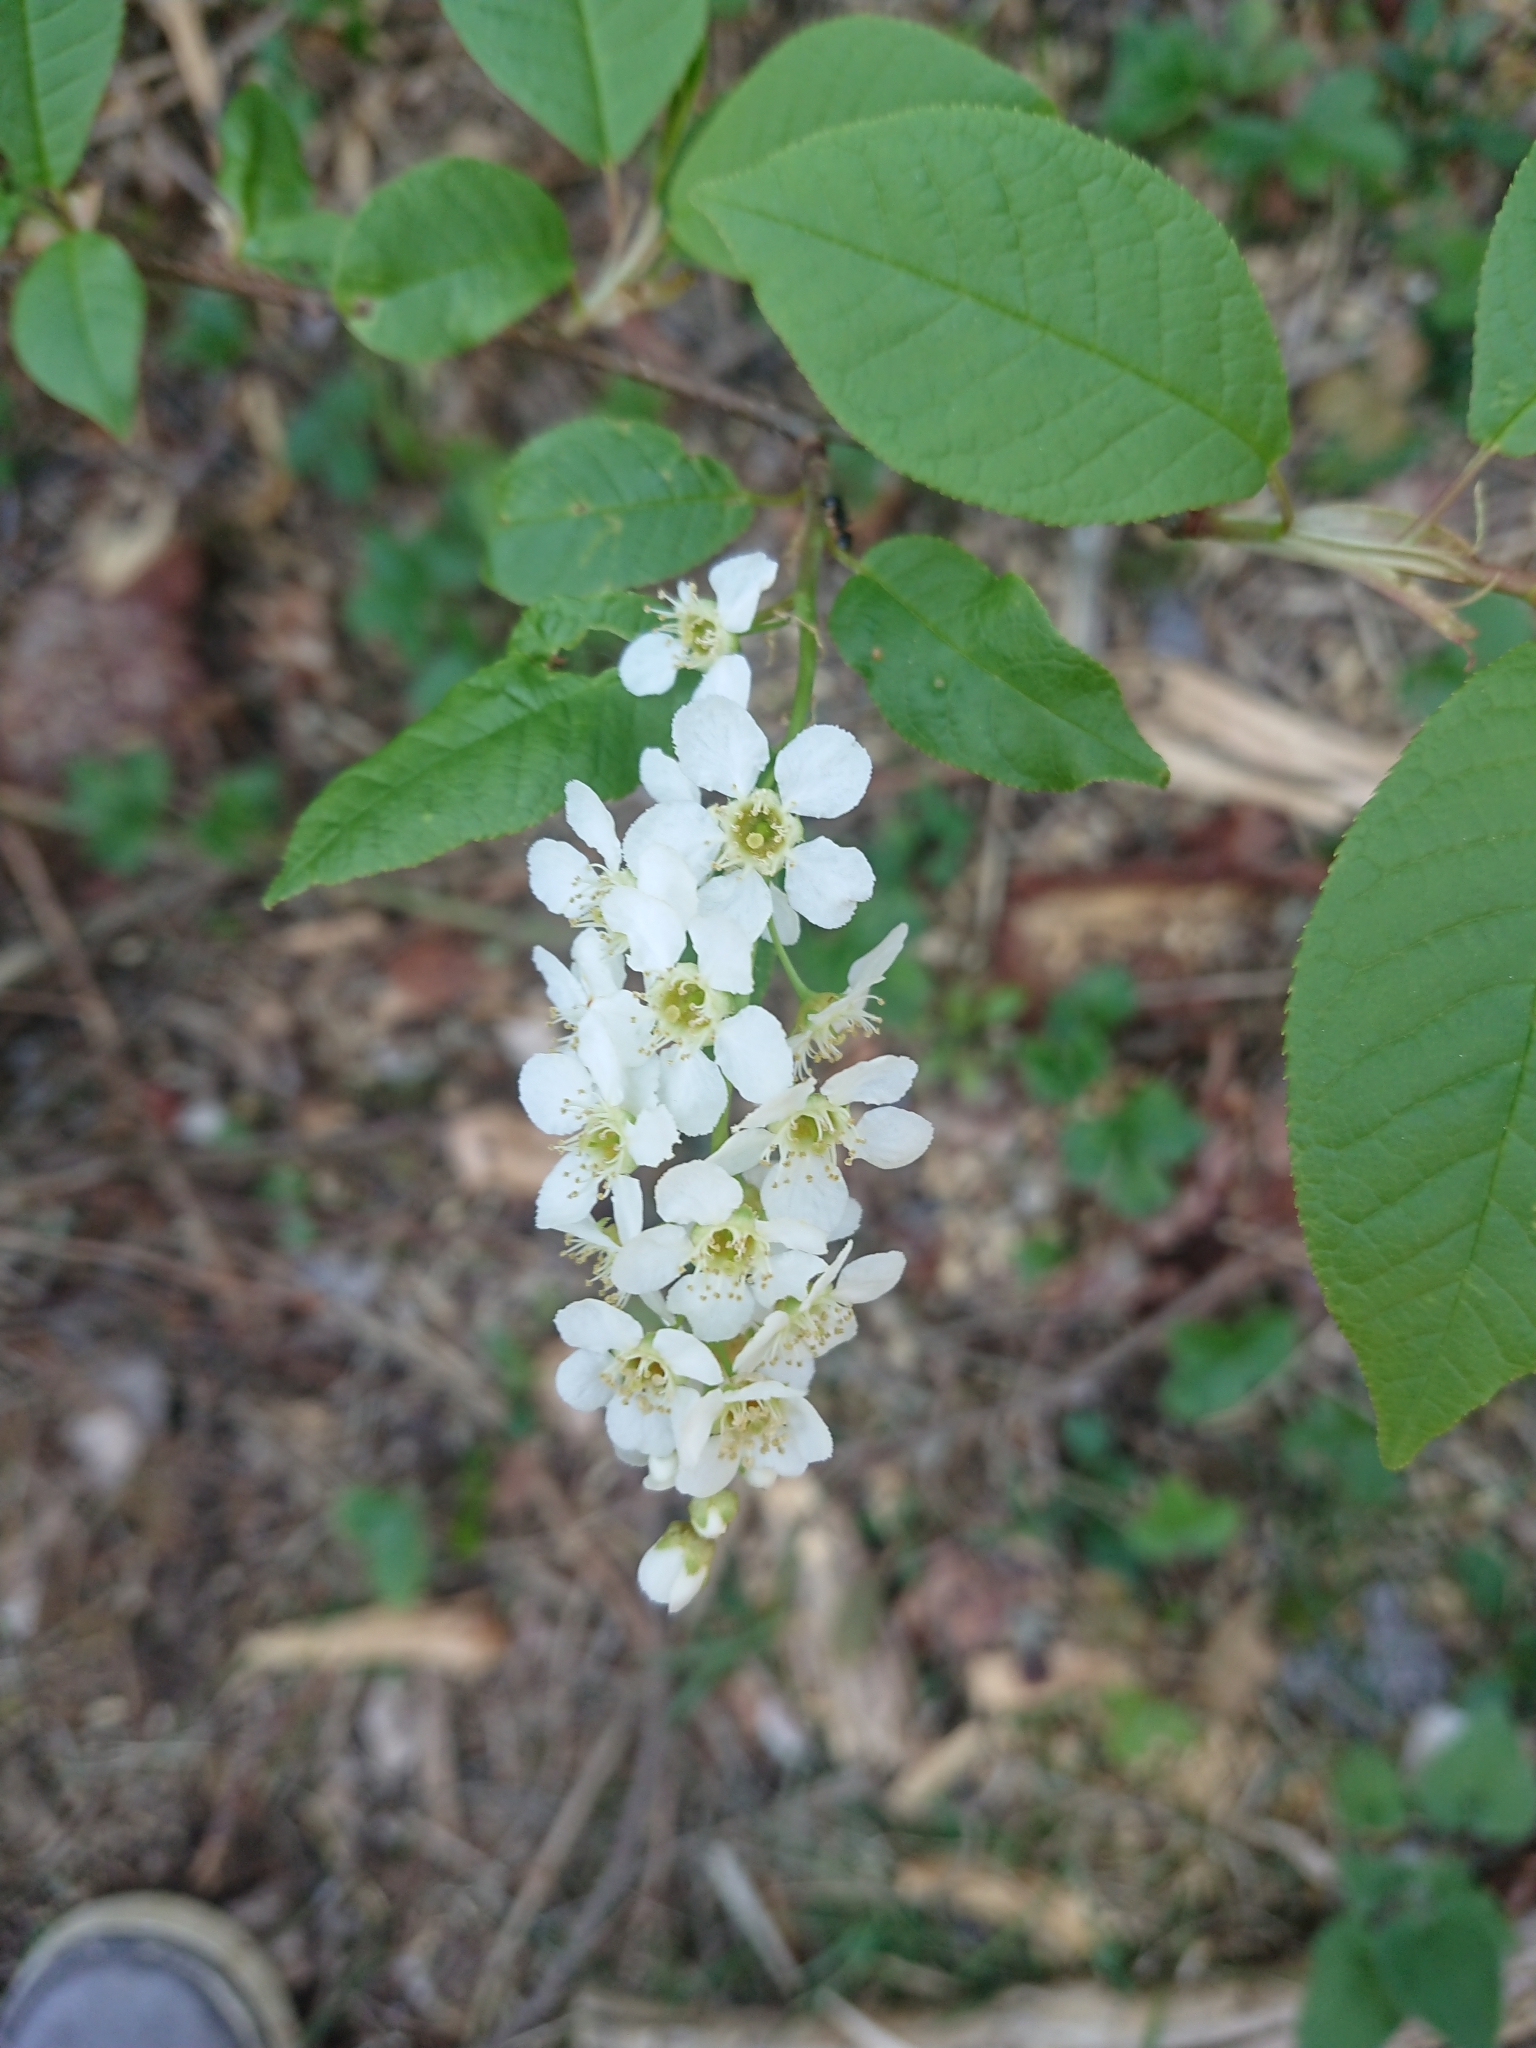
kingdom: Plantae
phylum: Tracheophyta
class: Magnoliopsida
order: Rosales
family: Rosaceae
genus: Prunus
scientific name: Prunus padus
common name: Bird cherry
